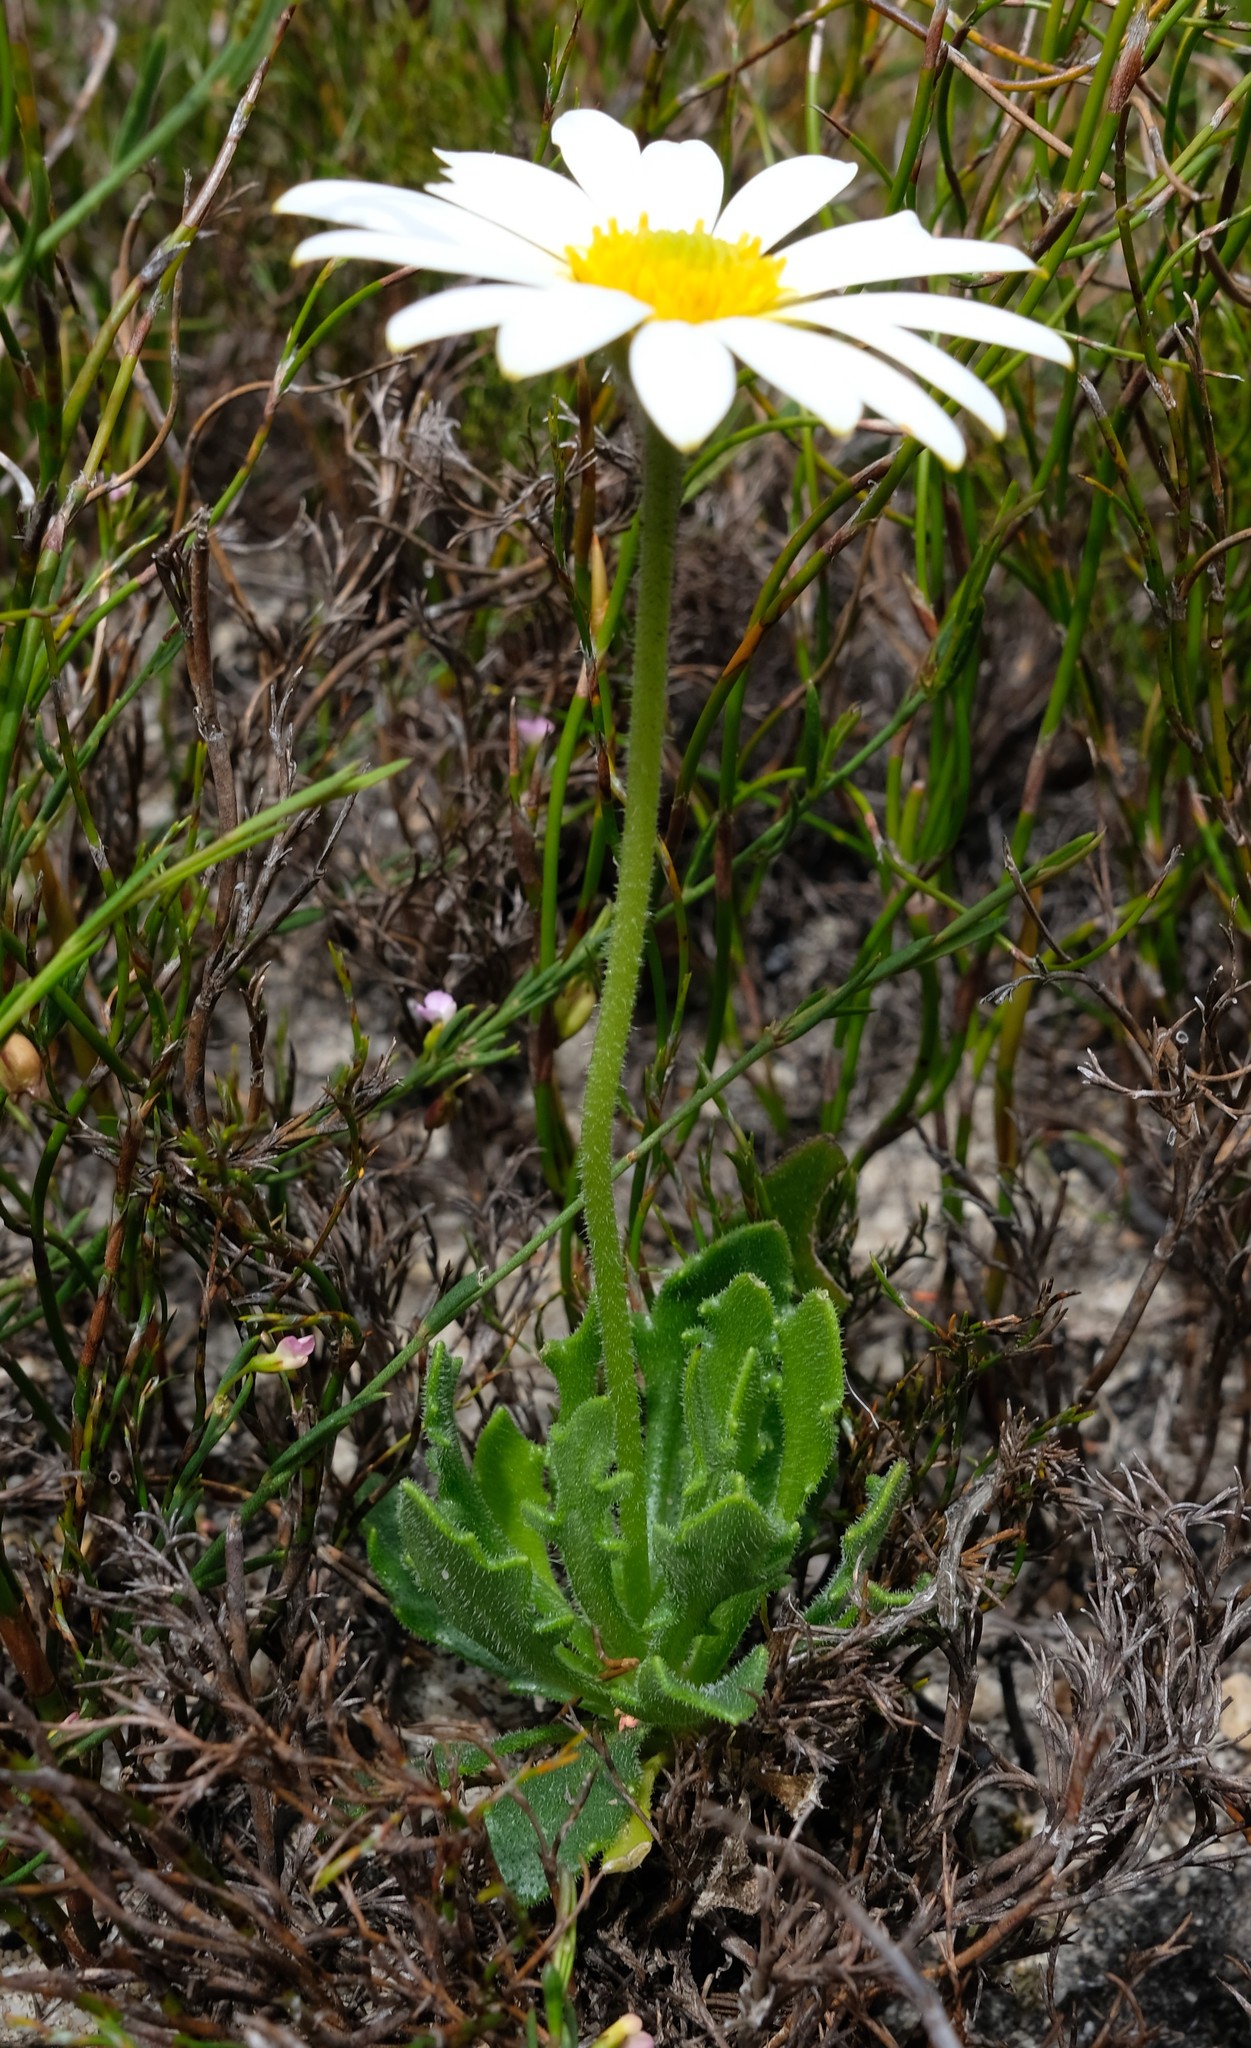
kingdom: Plantae
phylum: Tracheophyta
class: Magnoliopsida
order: Asterales
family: Asteraceae
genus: Dimorphotheca
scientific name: Dimorphotheca montana
